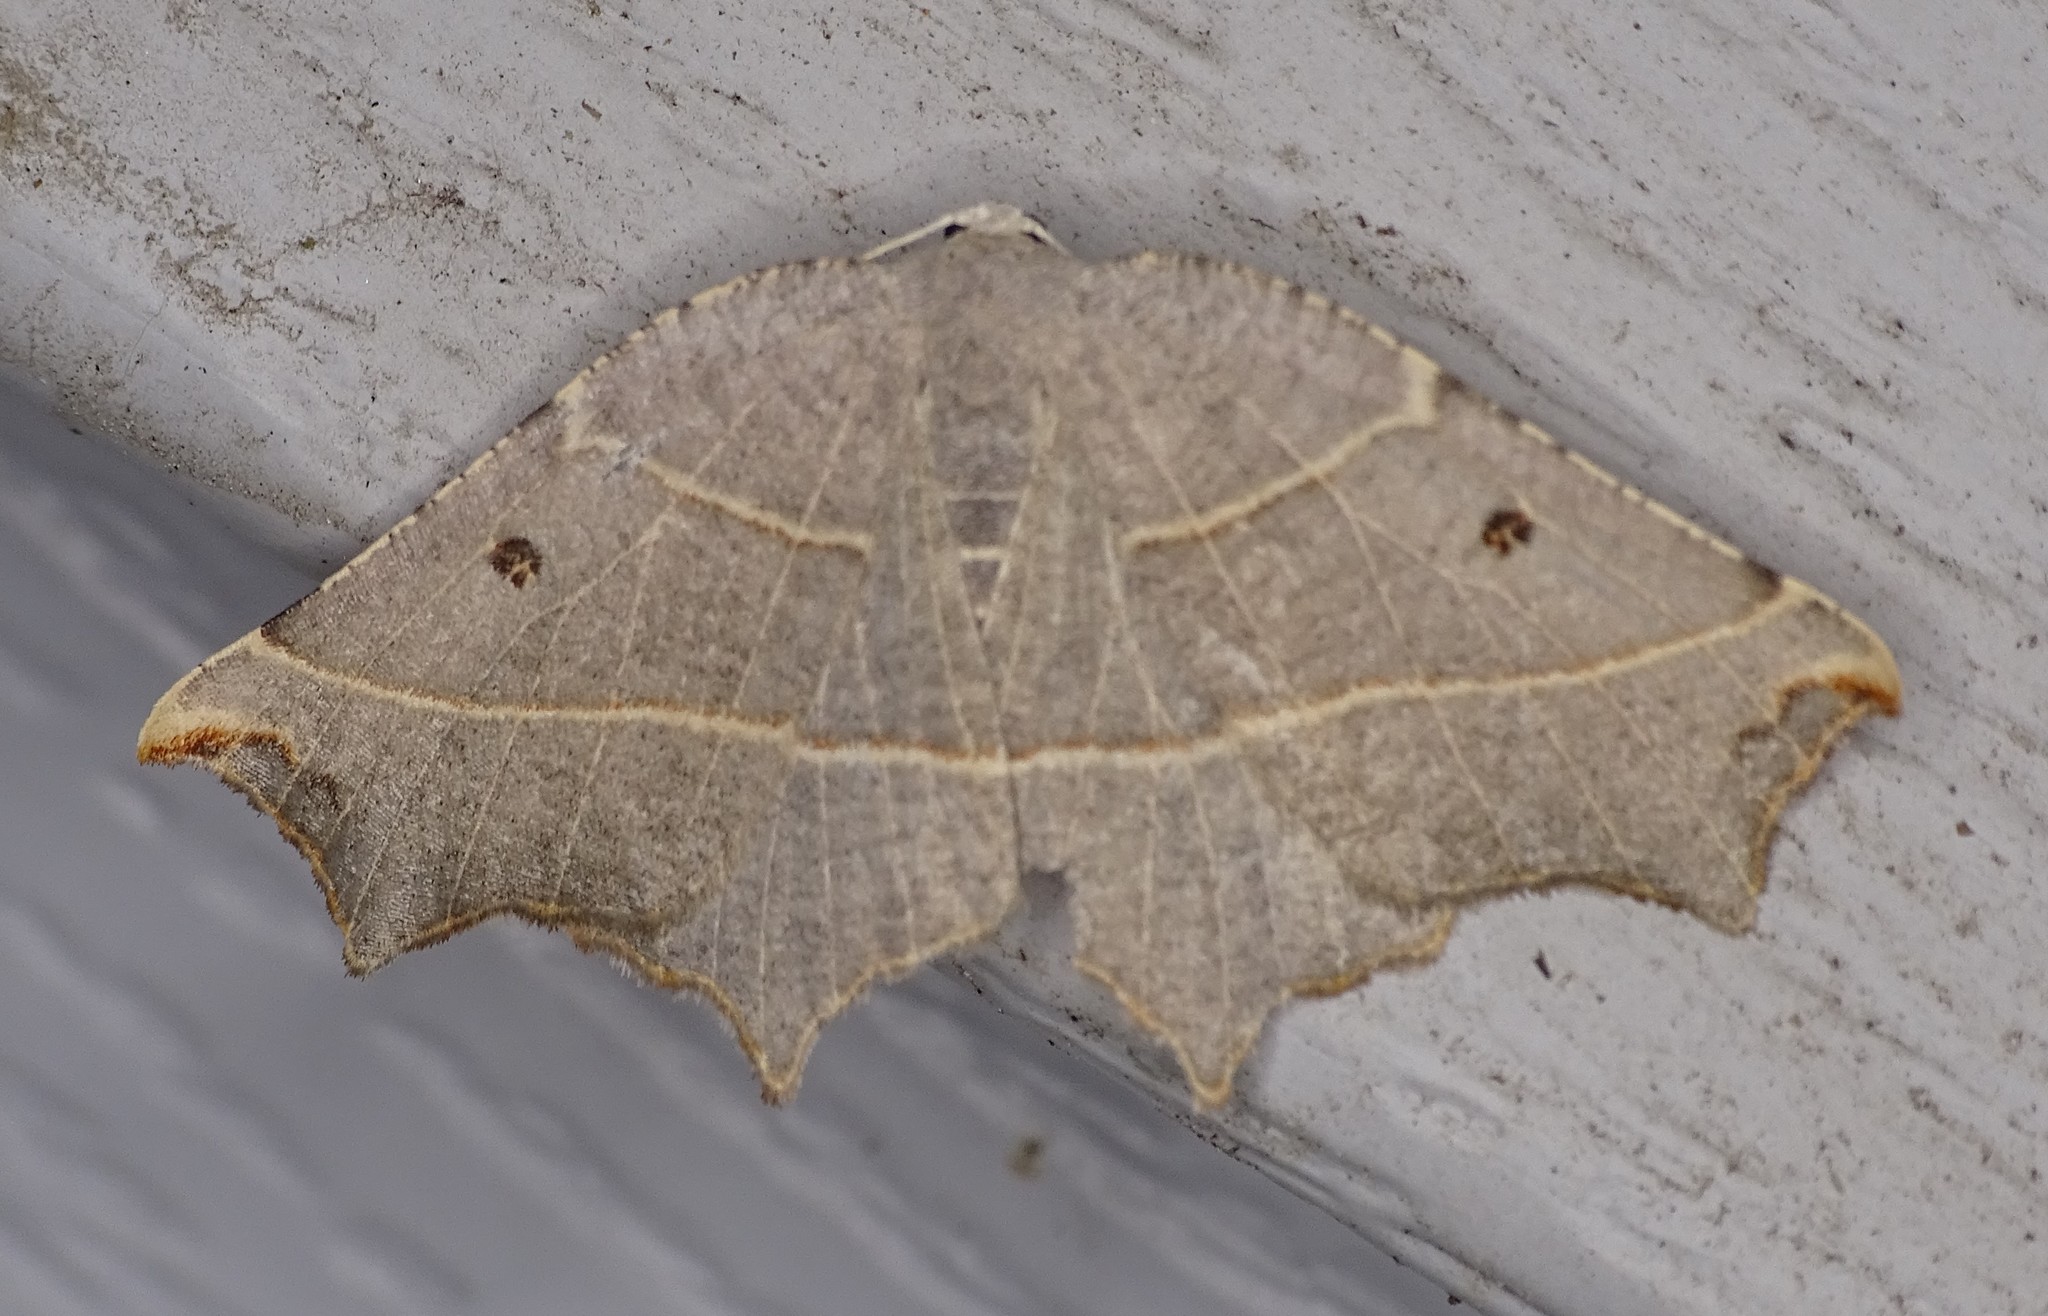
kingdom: Animalia
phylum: Arthropoda
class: Insecta
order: Lepidoptera
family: Geometridae
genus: Metanema
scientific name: Metanema inatomaria
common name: Pale metanema
